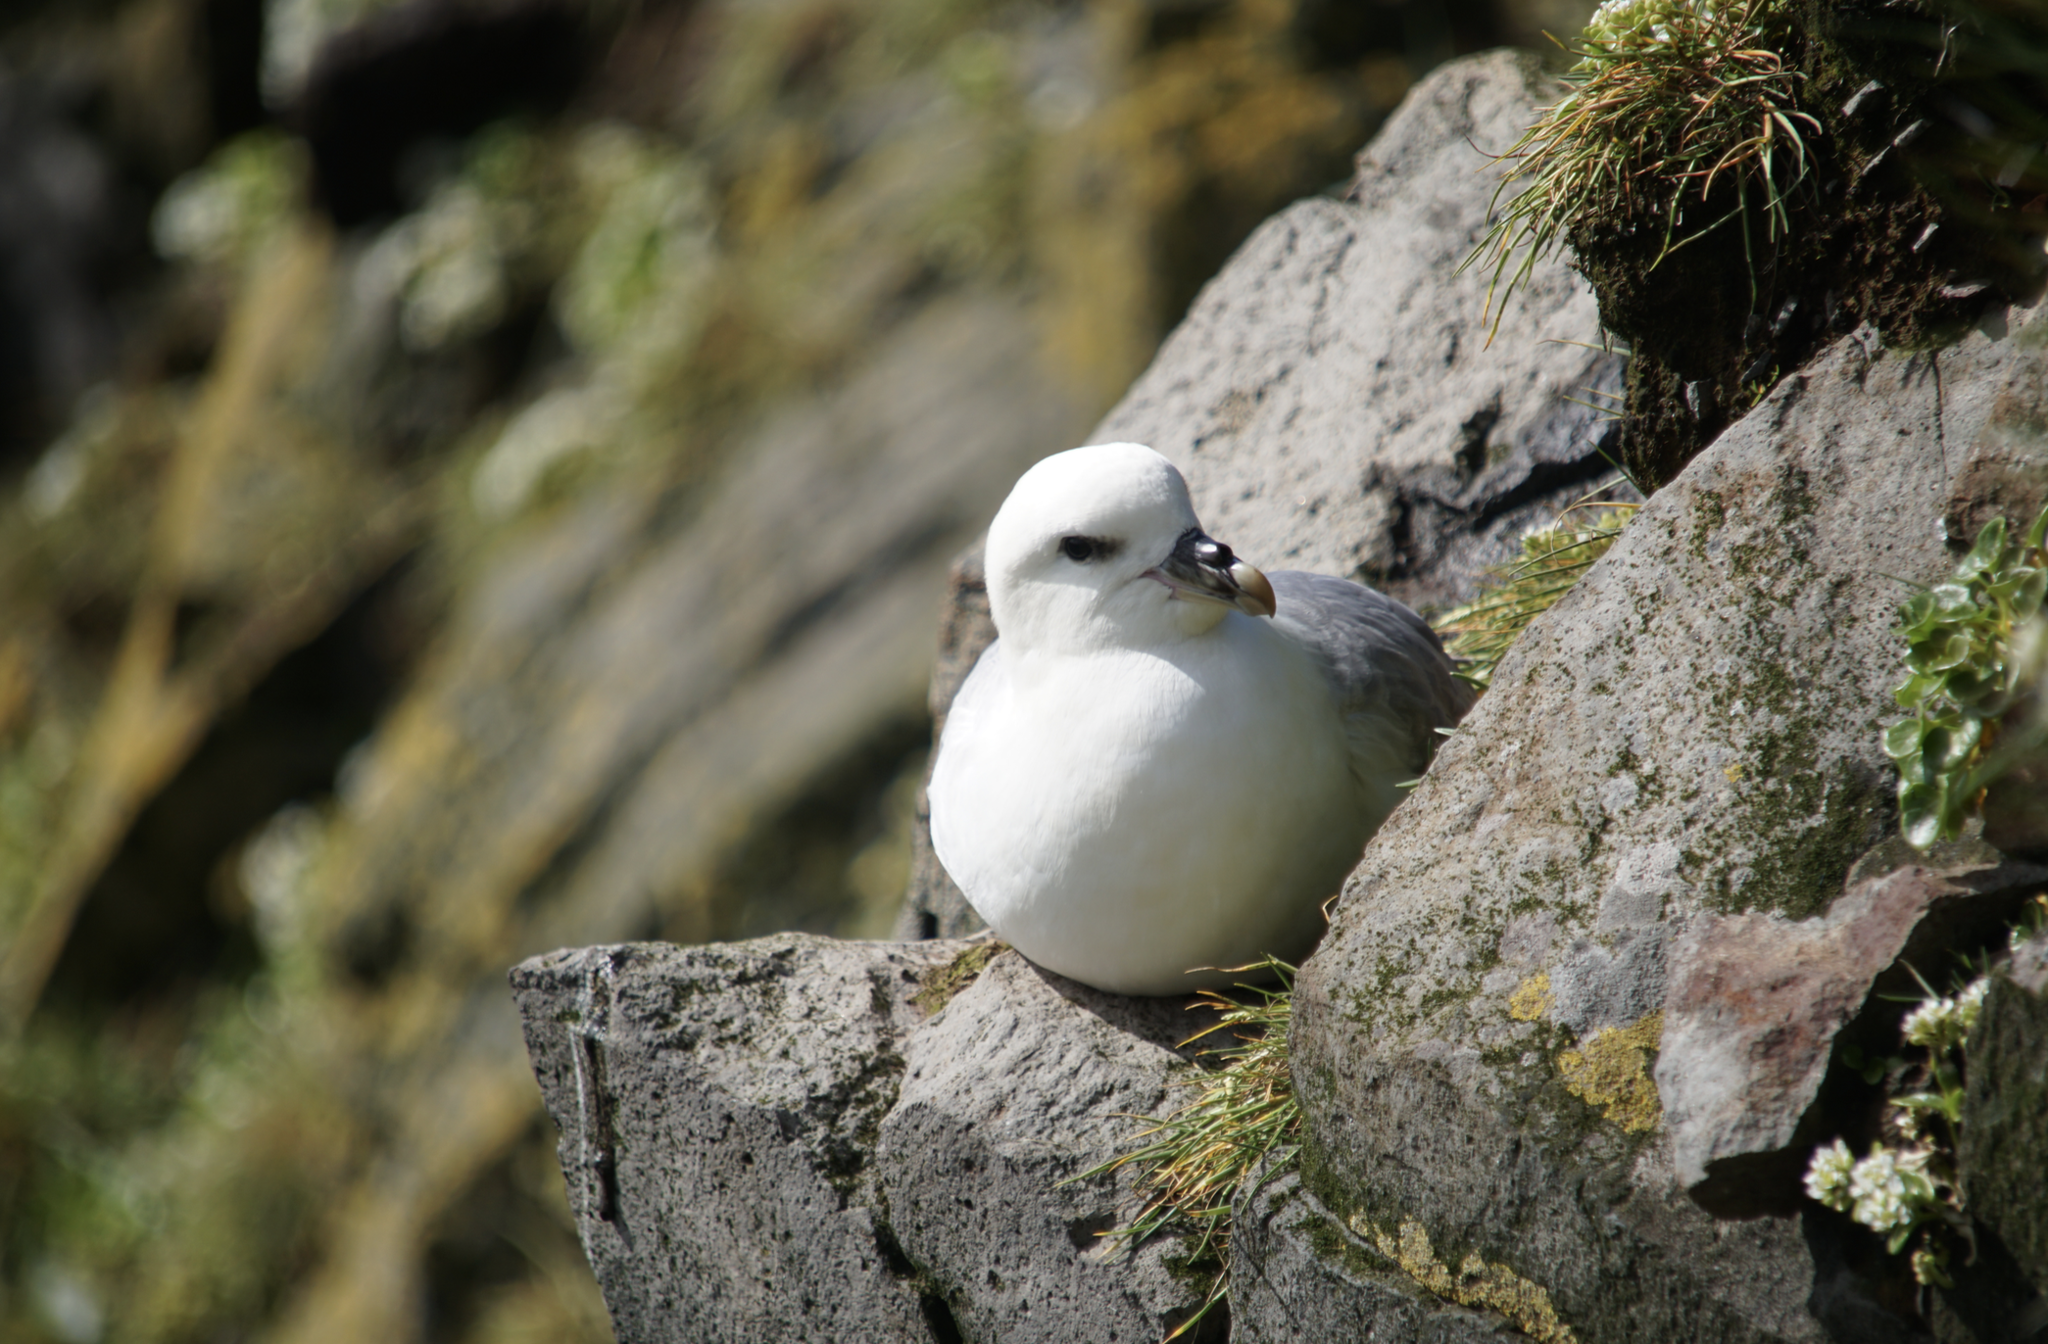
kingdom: Animalia
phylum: Chordata
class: Aves
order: Procellariiformes
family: Procellariidae
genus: Fulmarus
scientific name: Fulmarus glacialis
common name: Northern fulmar
